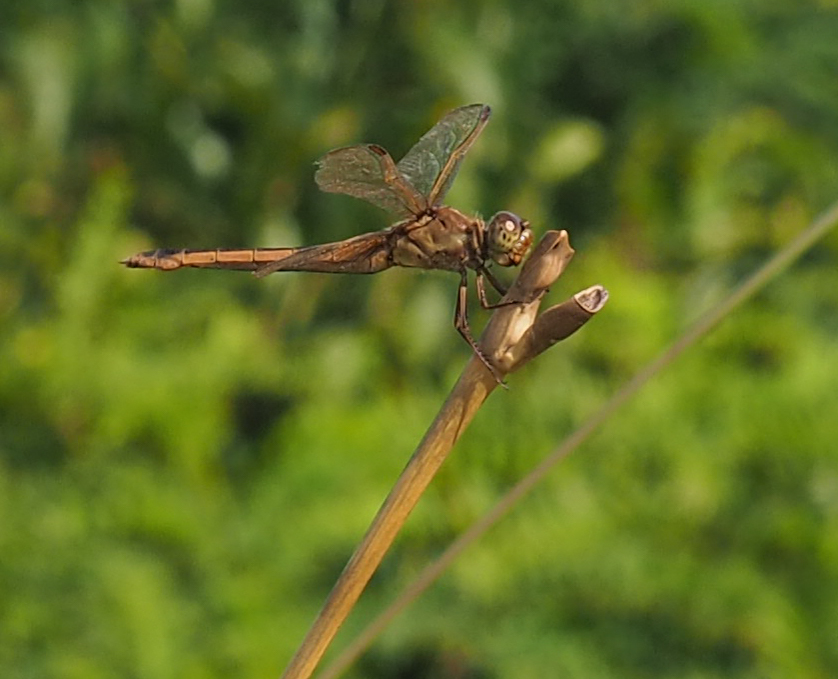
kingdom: Animalia
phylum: Arthropoda
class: Insecta
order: Odonata
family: Libellulidae
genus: Libellula
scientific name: Libellula needhami
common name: Needham's skimmer
